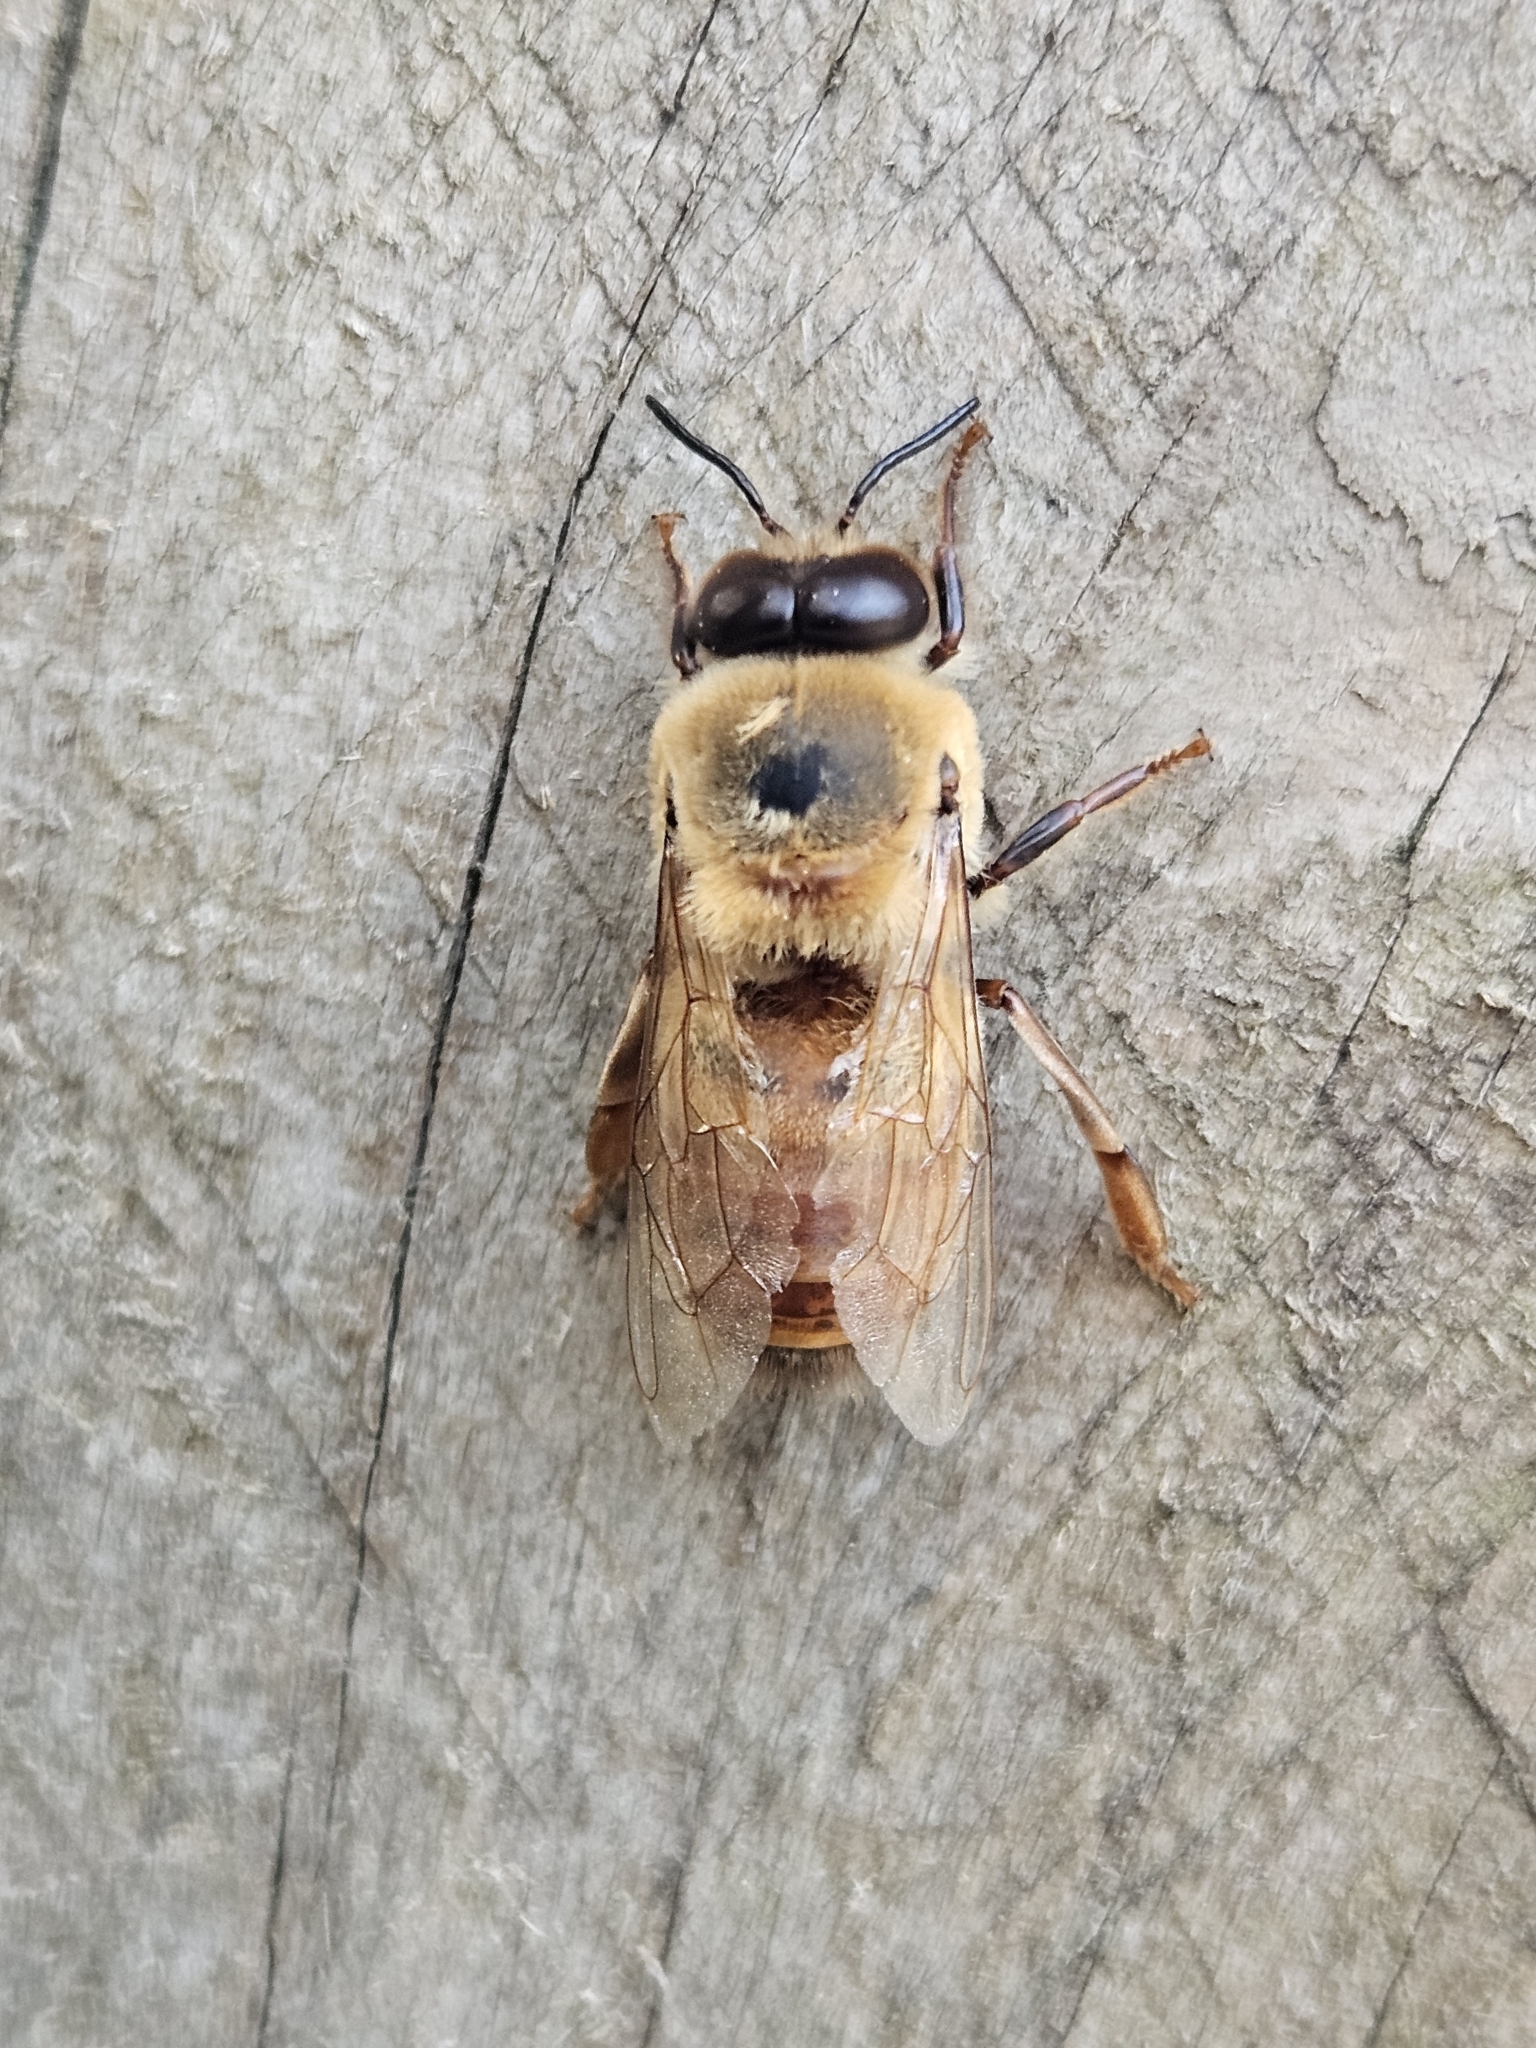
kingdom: Animalia
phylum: Arthropoda
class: Insecta
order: Hymenoptera
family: Apidae
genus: Apis
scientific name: Apis mellifera
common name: Honey bee
